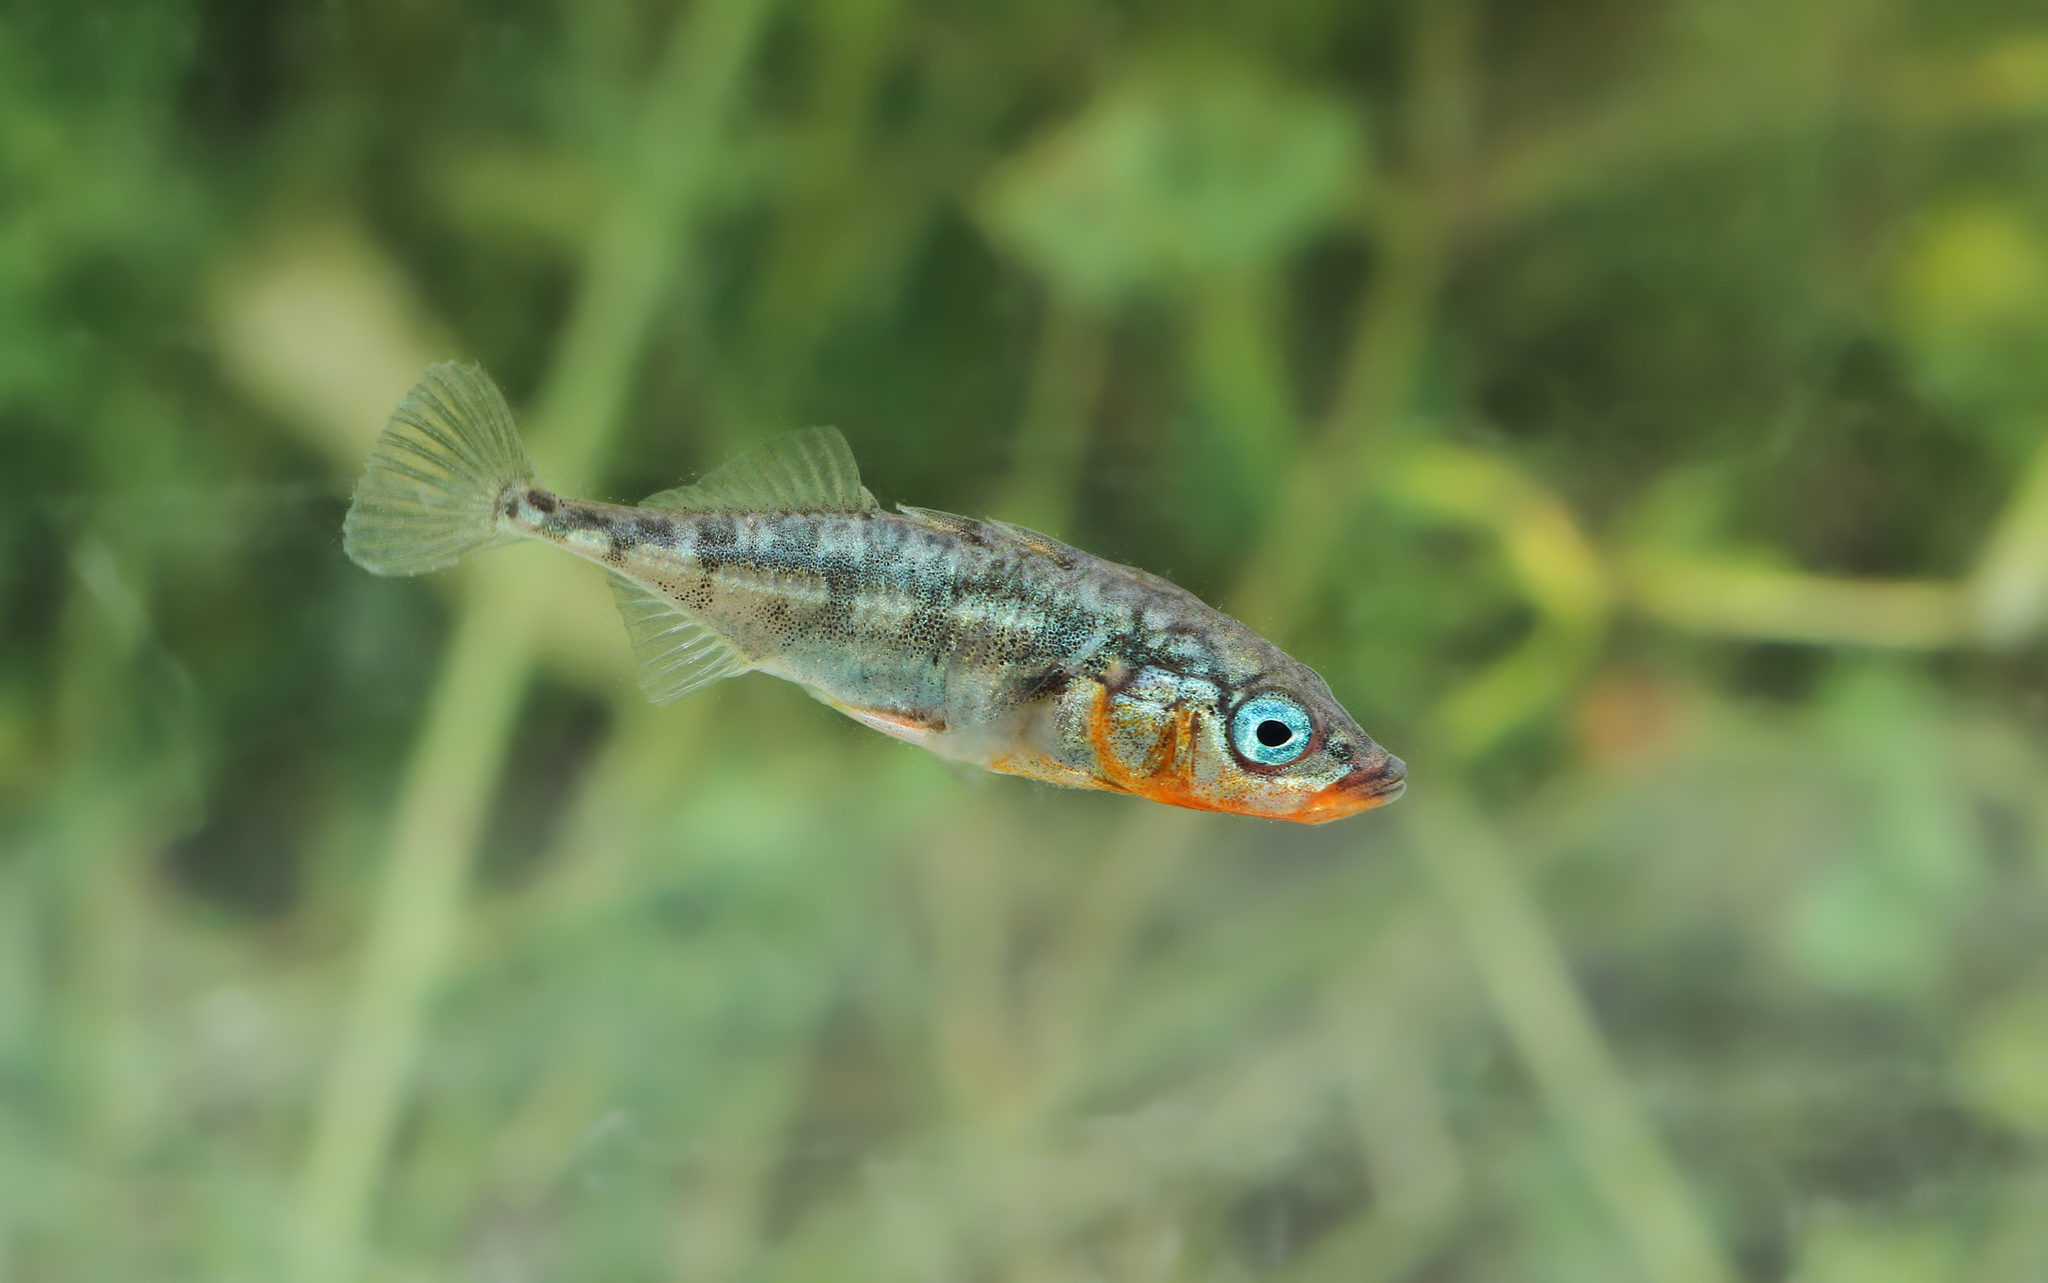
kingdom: Animalia
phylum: Chordata
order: Gasterosteiformes
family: Gasterosteidae
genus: Gasterosteus
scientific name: Gasterosteus aculeatus
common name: Three-spined stickleback
